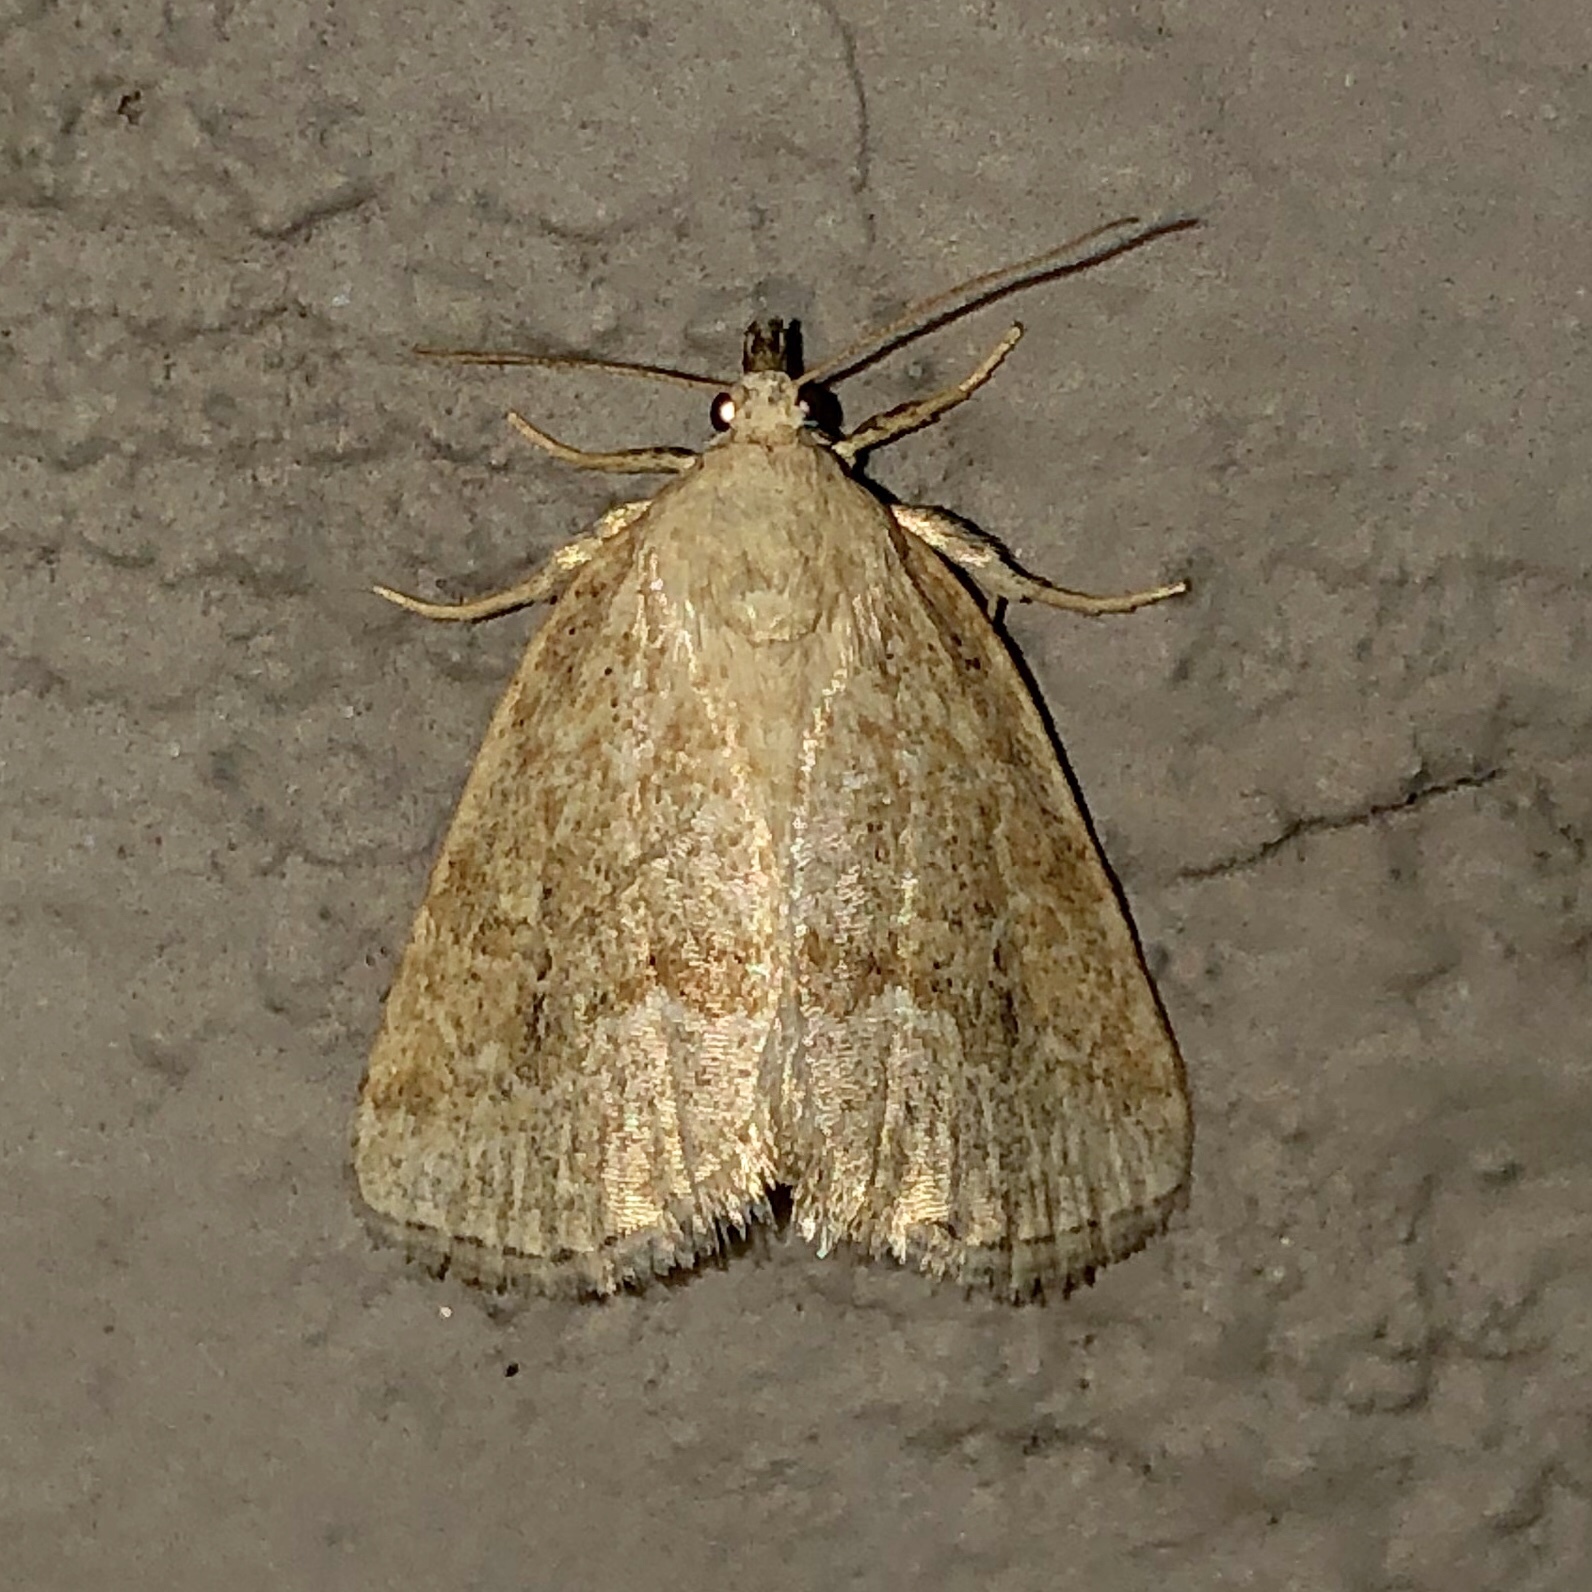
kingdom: Animalia
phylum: Arthropoda
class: Insecta
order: Lepidoptera
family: Noctuidae
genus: Protodeltote
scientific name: Protodeltote albidula
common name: Pale glyph
